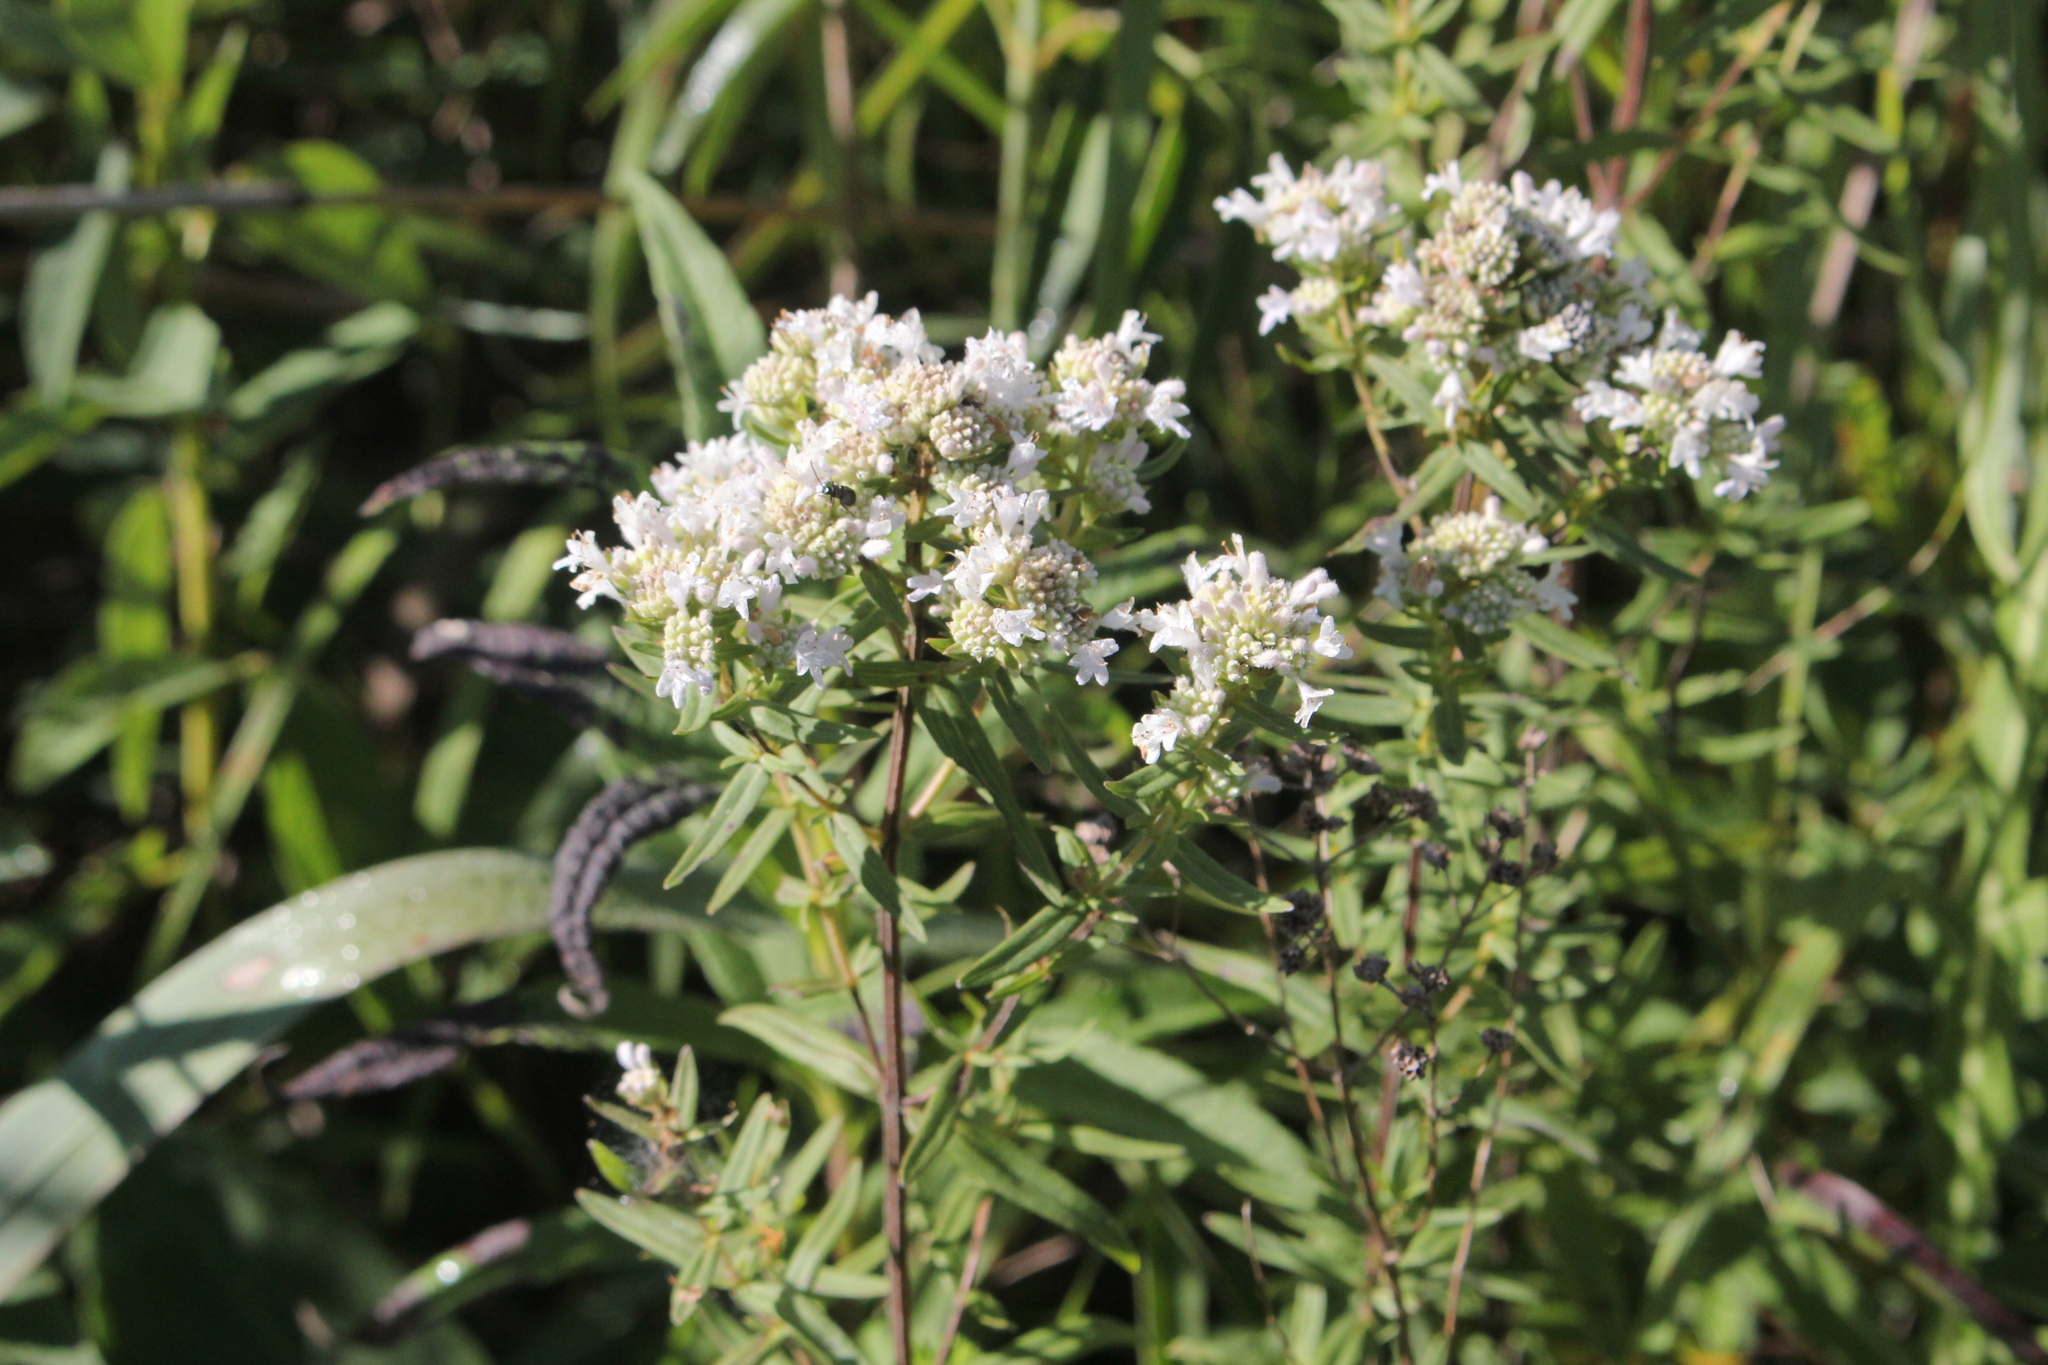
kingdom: Plantae
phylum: Tracheophyta
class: Magnoliopsida
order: Lamiales
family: Lamiaceae
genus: Pycnanthemum
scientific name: Pycnanthemum virginianum
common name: Virginia mountain-mint
